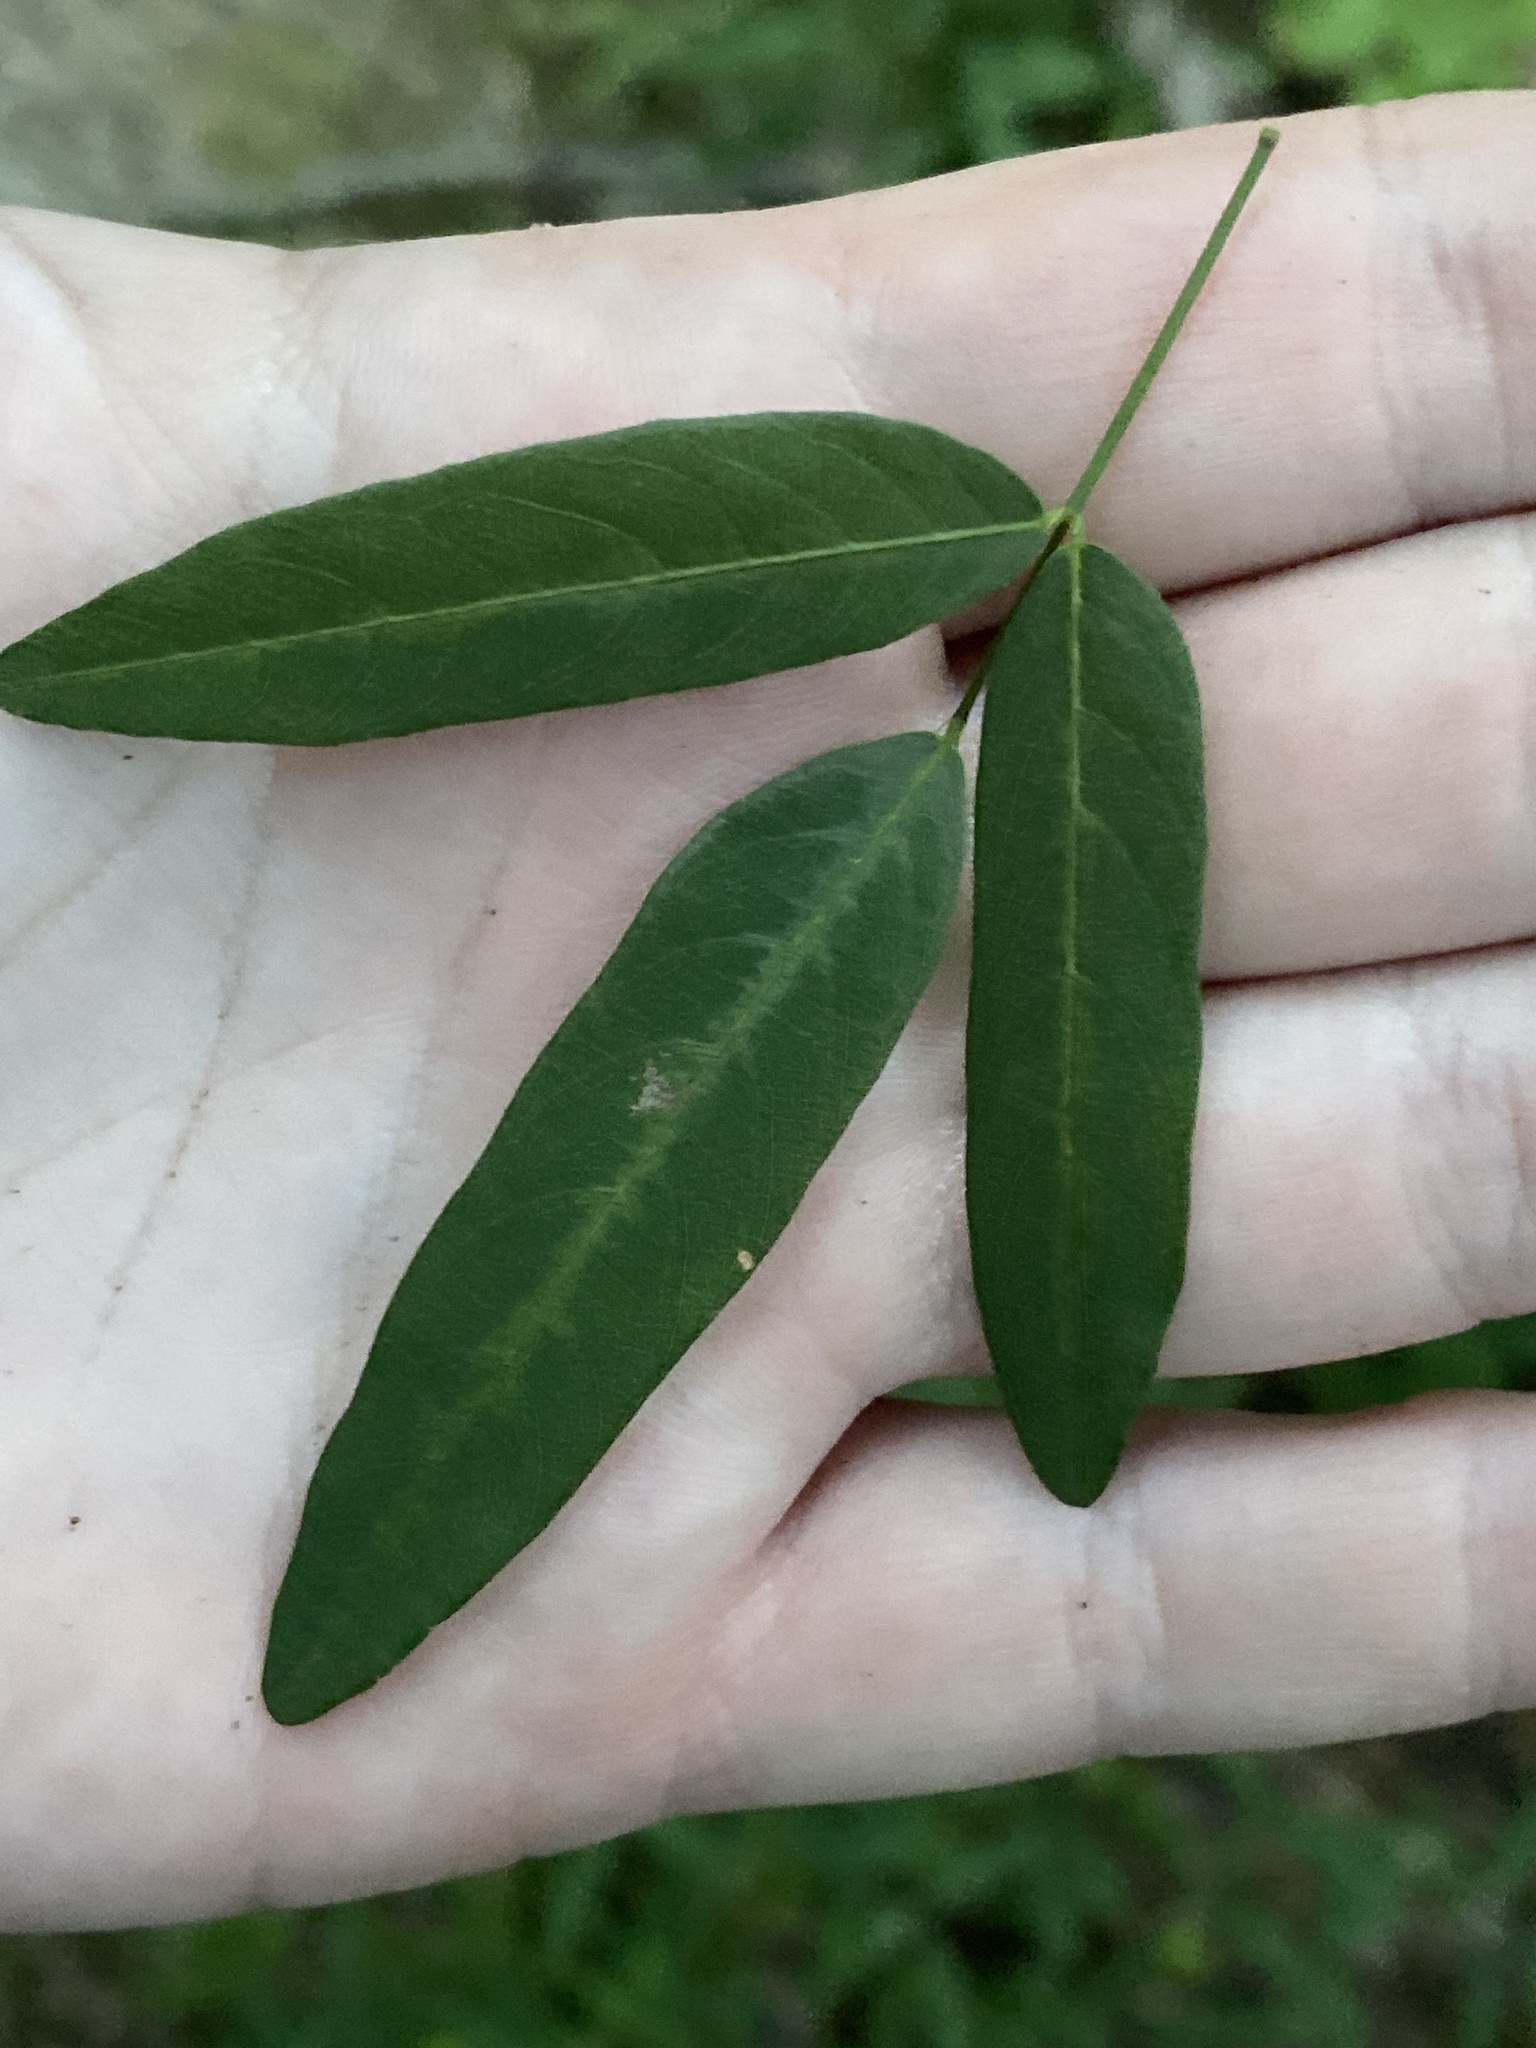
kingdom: Plantae
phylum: Tracheophyta
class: Magnoliopsida
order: Fabales
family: Fabaceae
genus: Desmodium
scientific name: Desmodium paniculatum
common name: Panicled tick-clover
